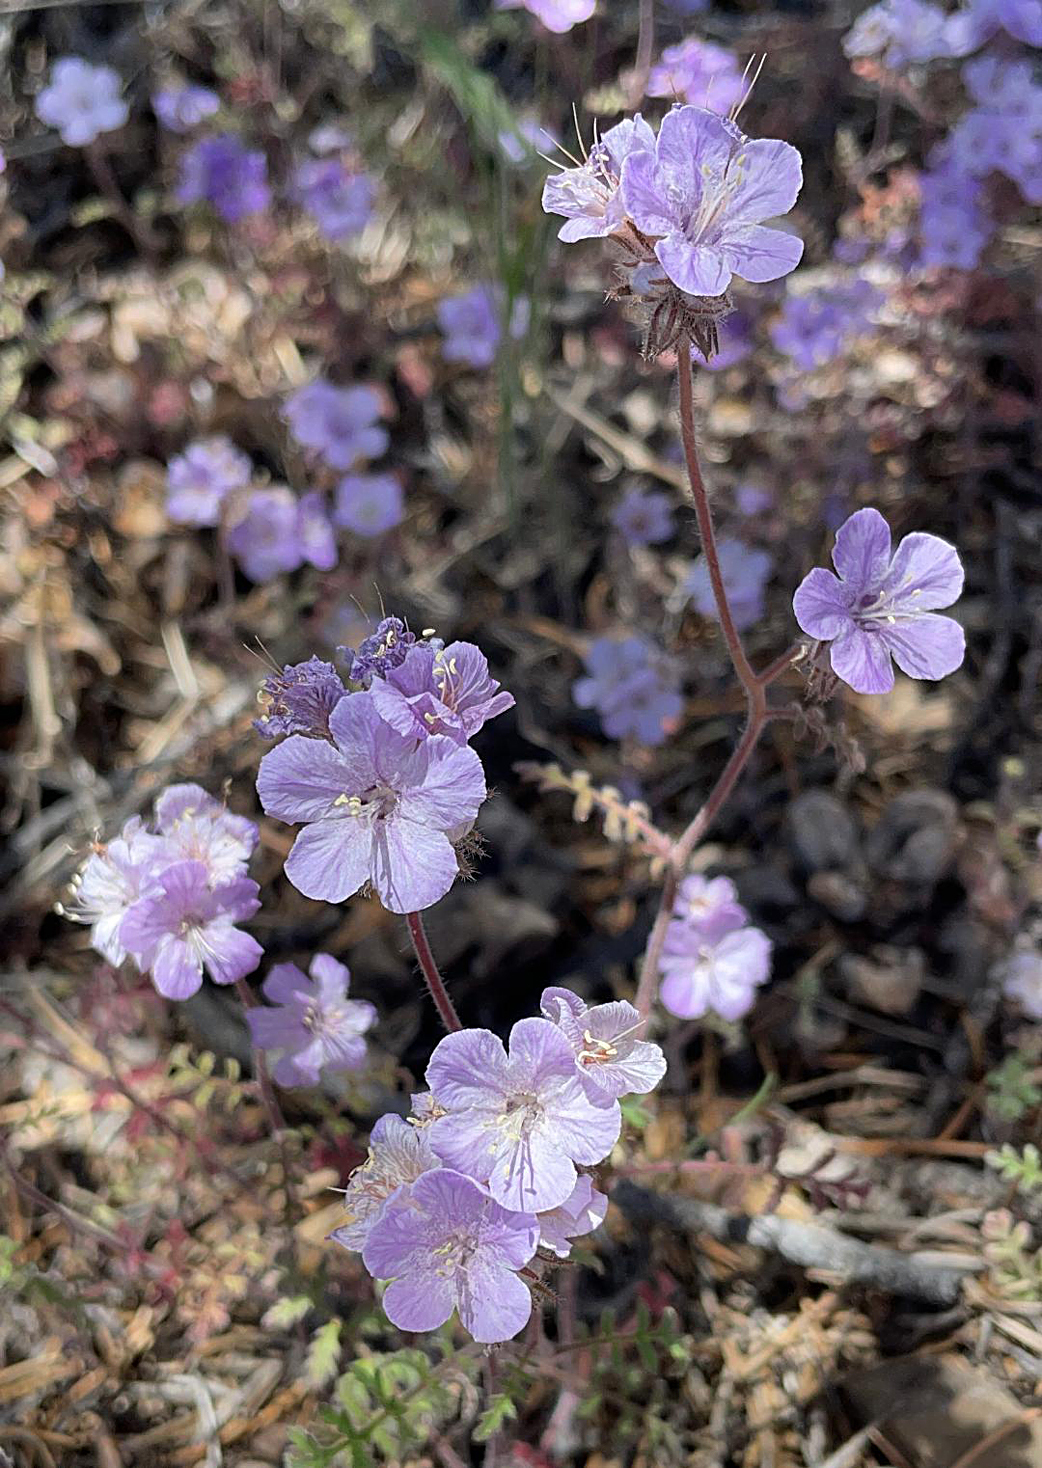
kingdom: Plantae
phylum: Tracheophyta
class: Magnoliopsida
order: Boraginales
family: Hydrophyllaceae
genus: Phacelia
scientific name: Phacelia vallis-mortae
